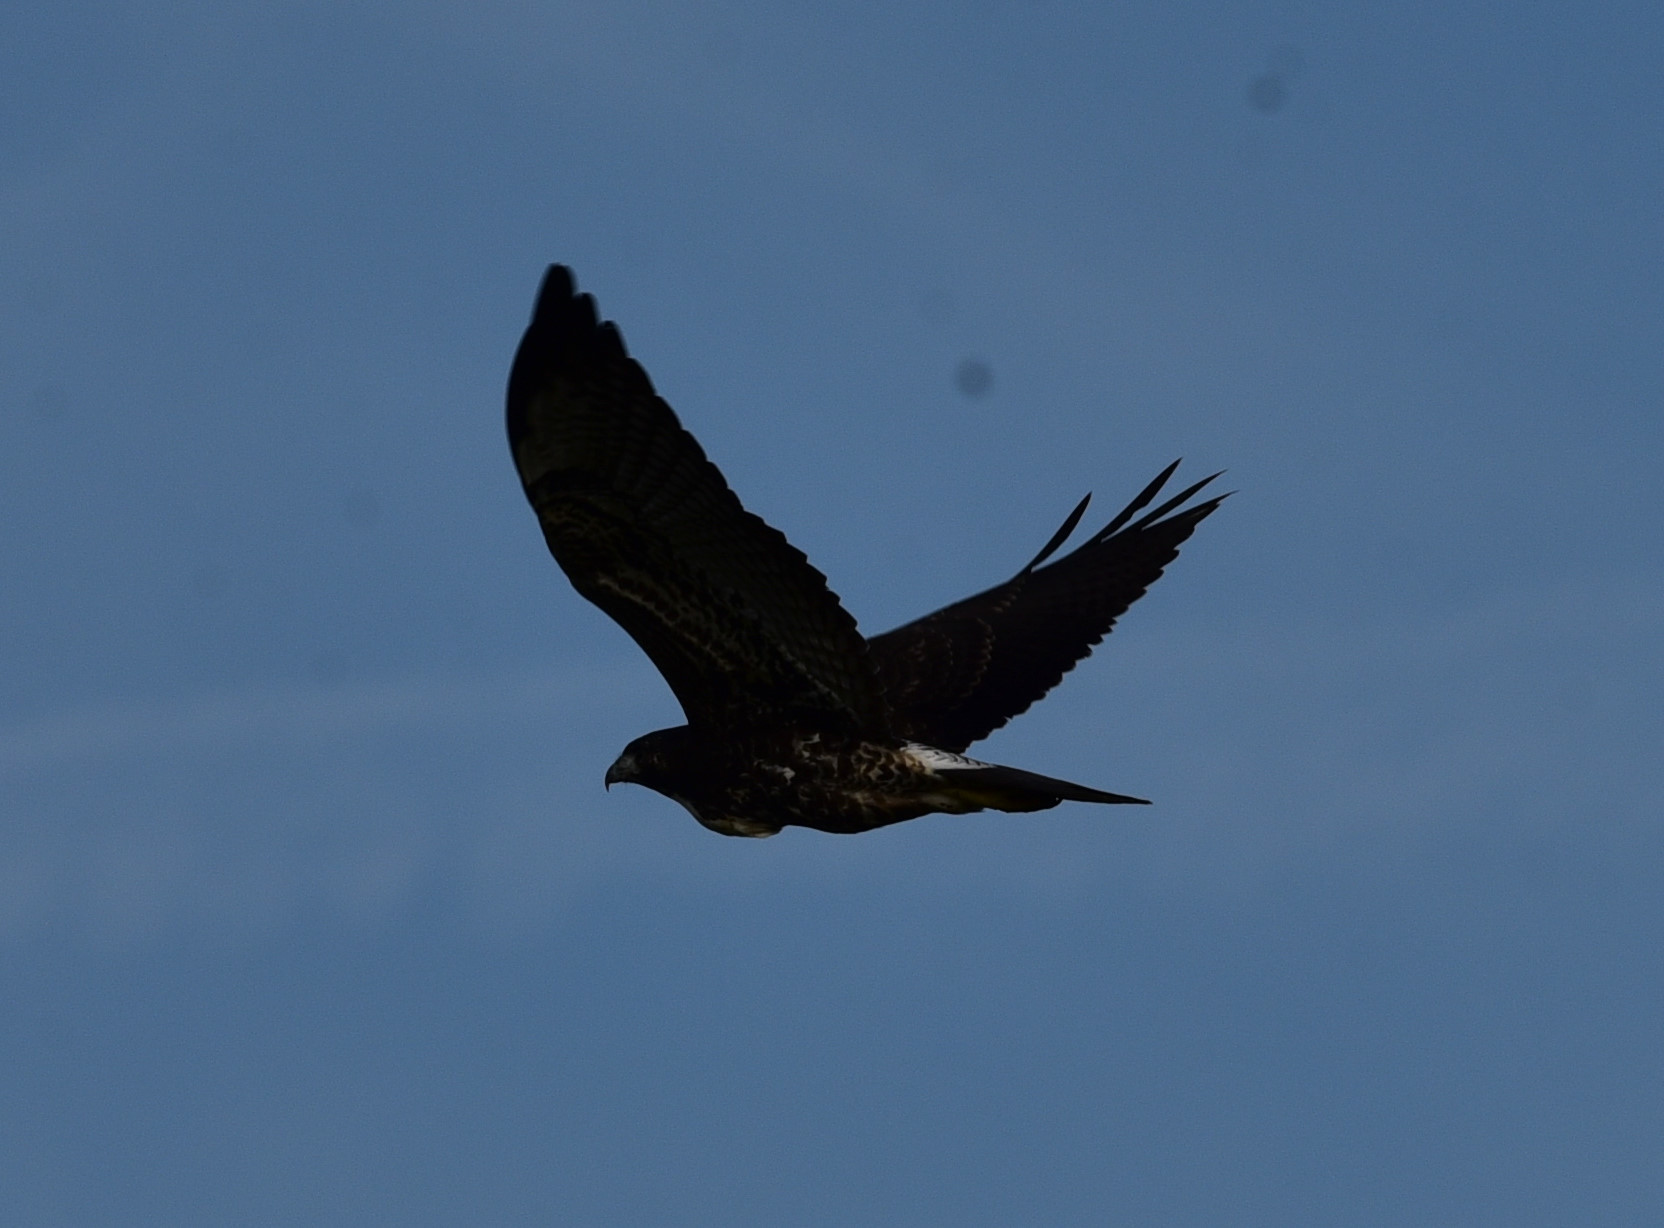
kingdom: Animalia
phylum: Chordata
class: Aves
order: Accipitriformes
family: Accipitridae
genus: Buteo
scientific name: Buteo albicaudatus
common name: White-tailed hawk
